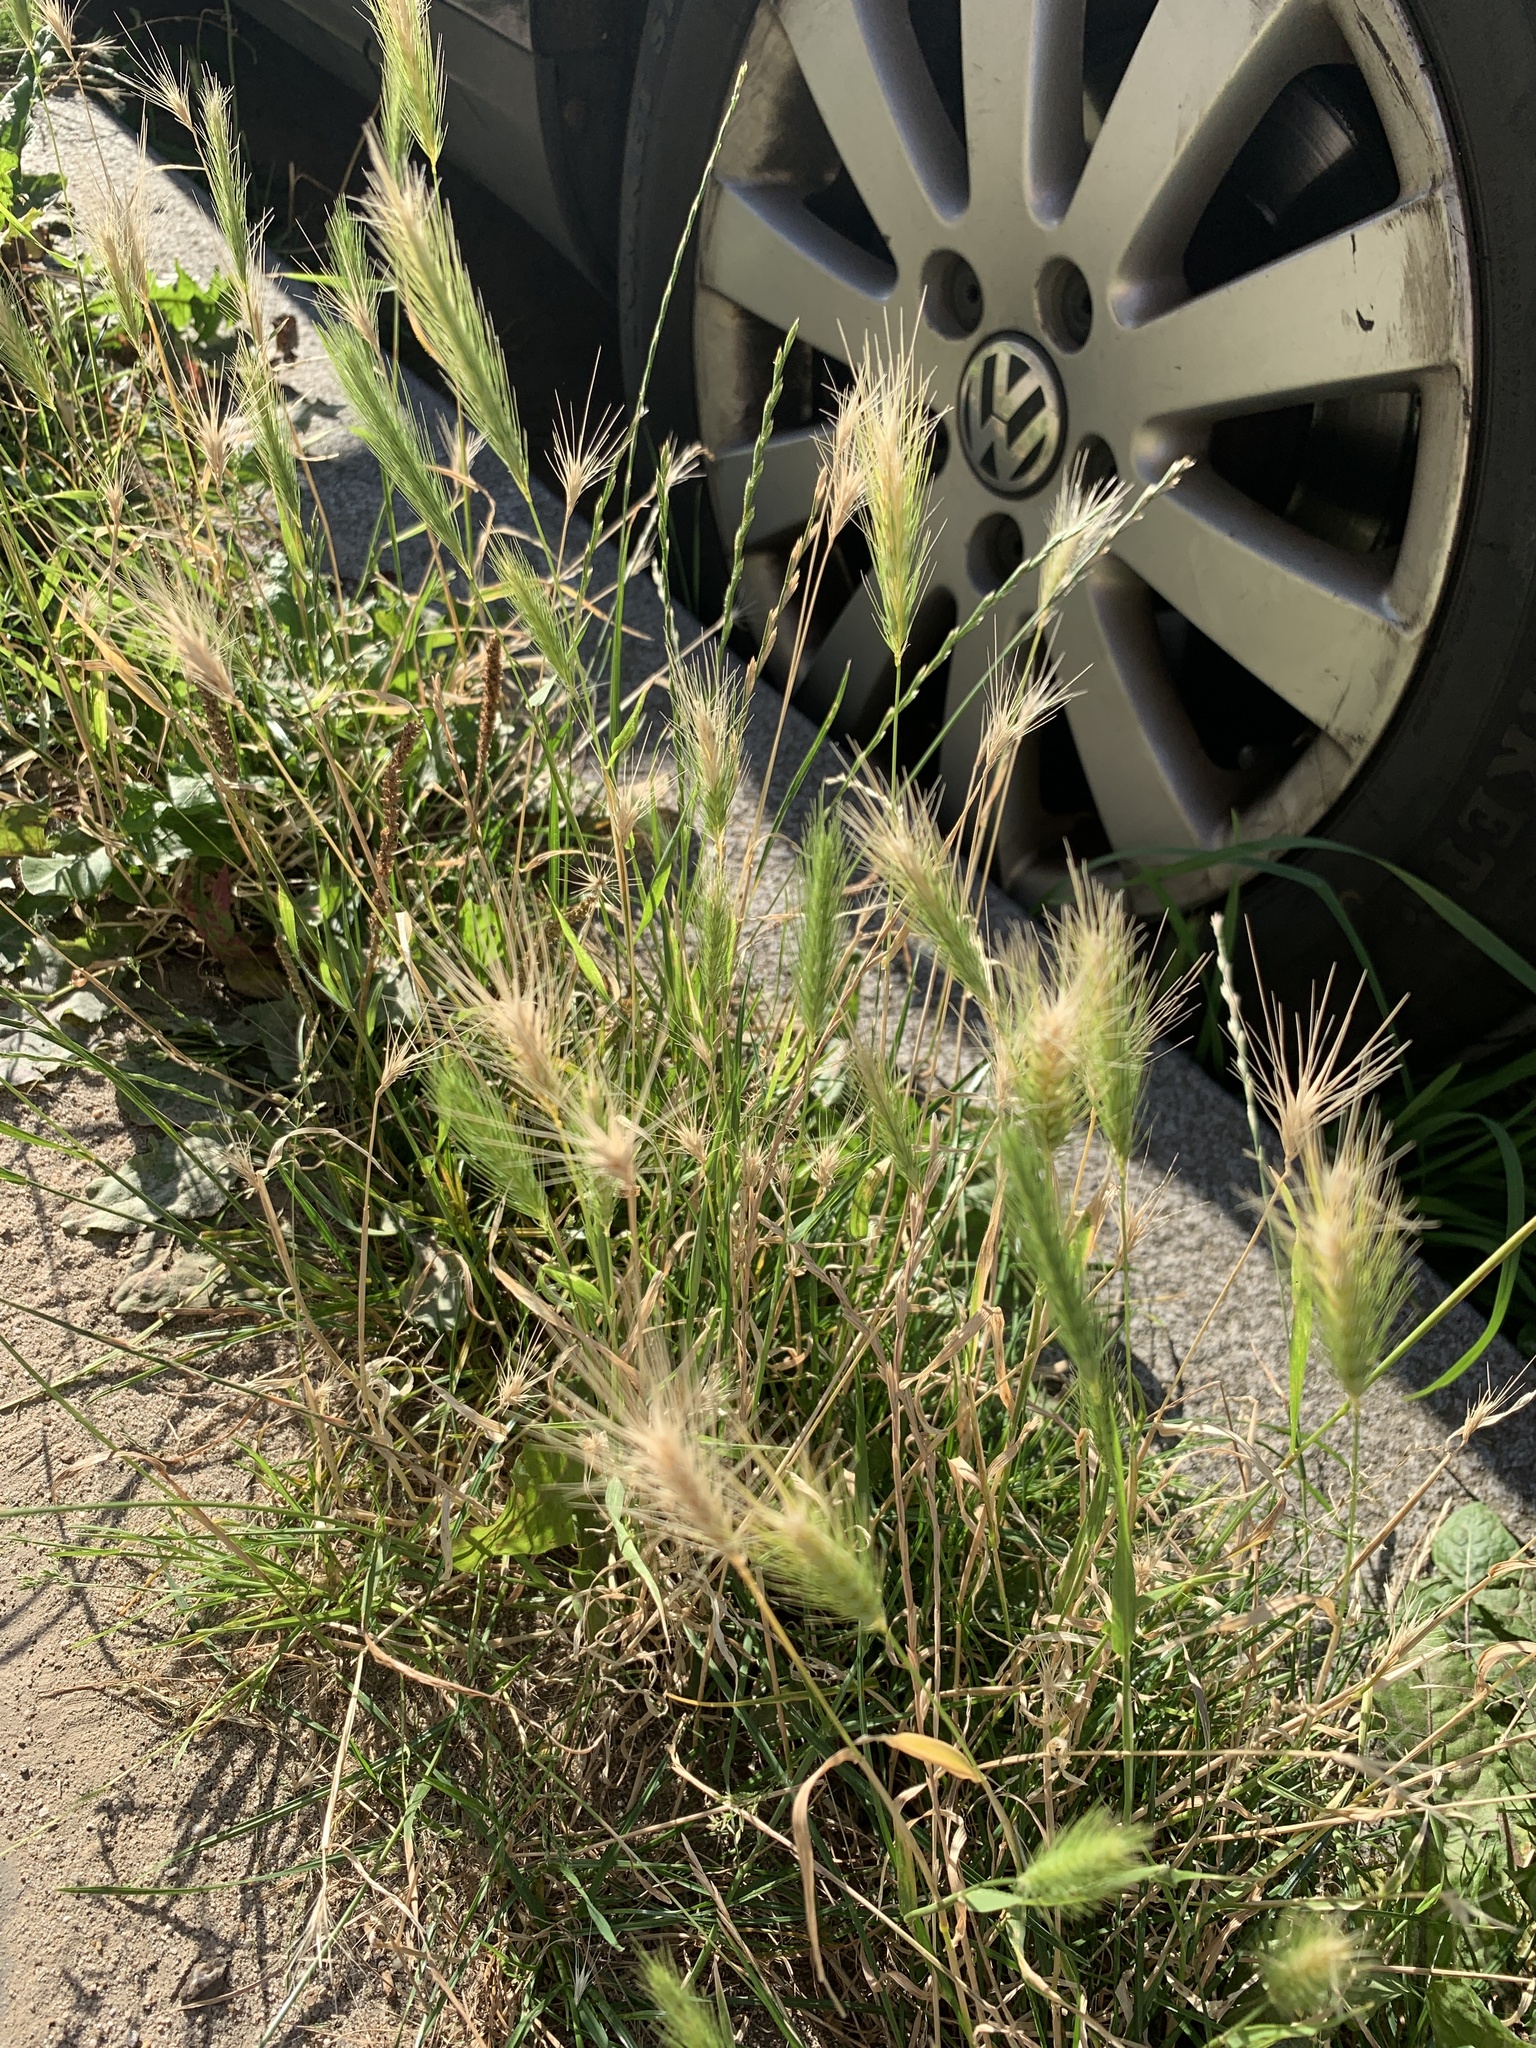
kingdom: Plantae
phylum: Tracheophyta
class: Liliopsida
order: Poales
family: Poaceae
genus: Hordeum
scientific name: Hordeum murinum
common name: Wall barley
